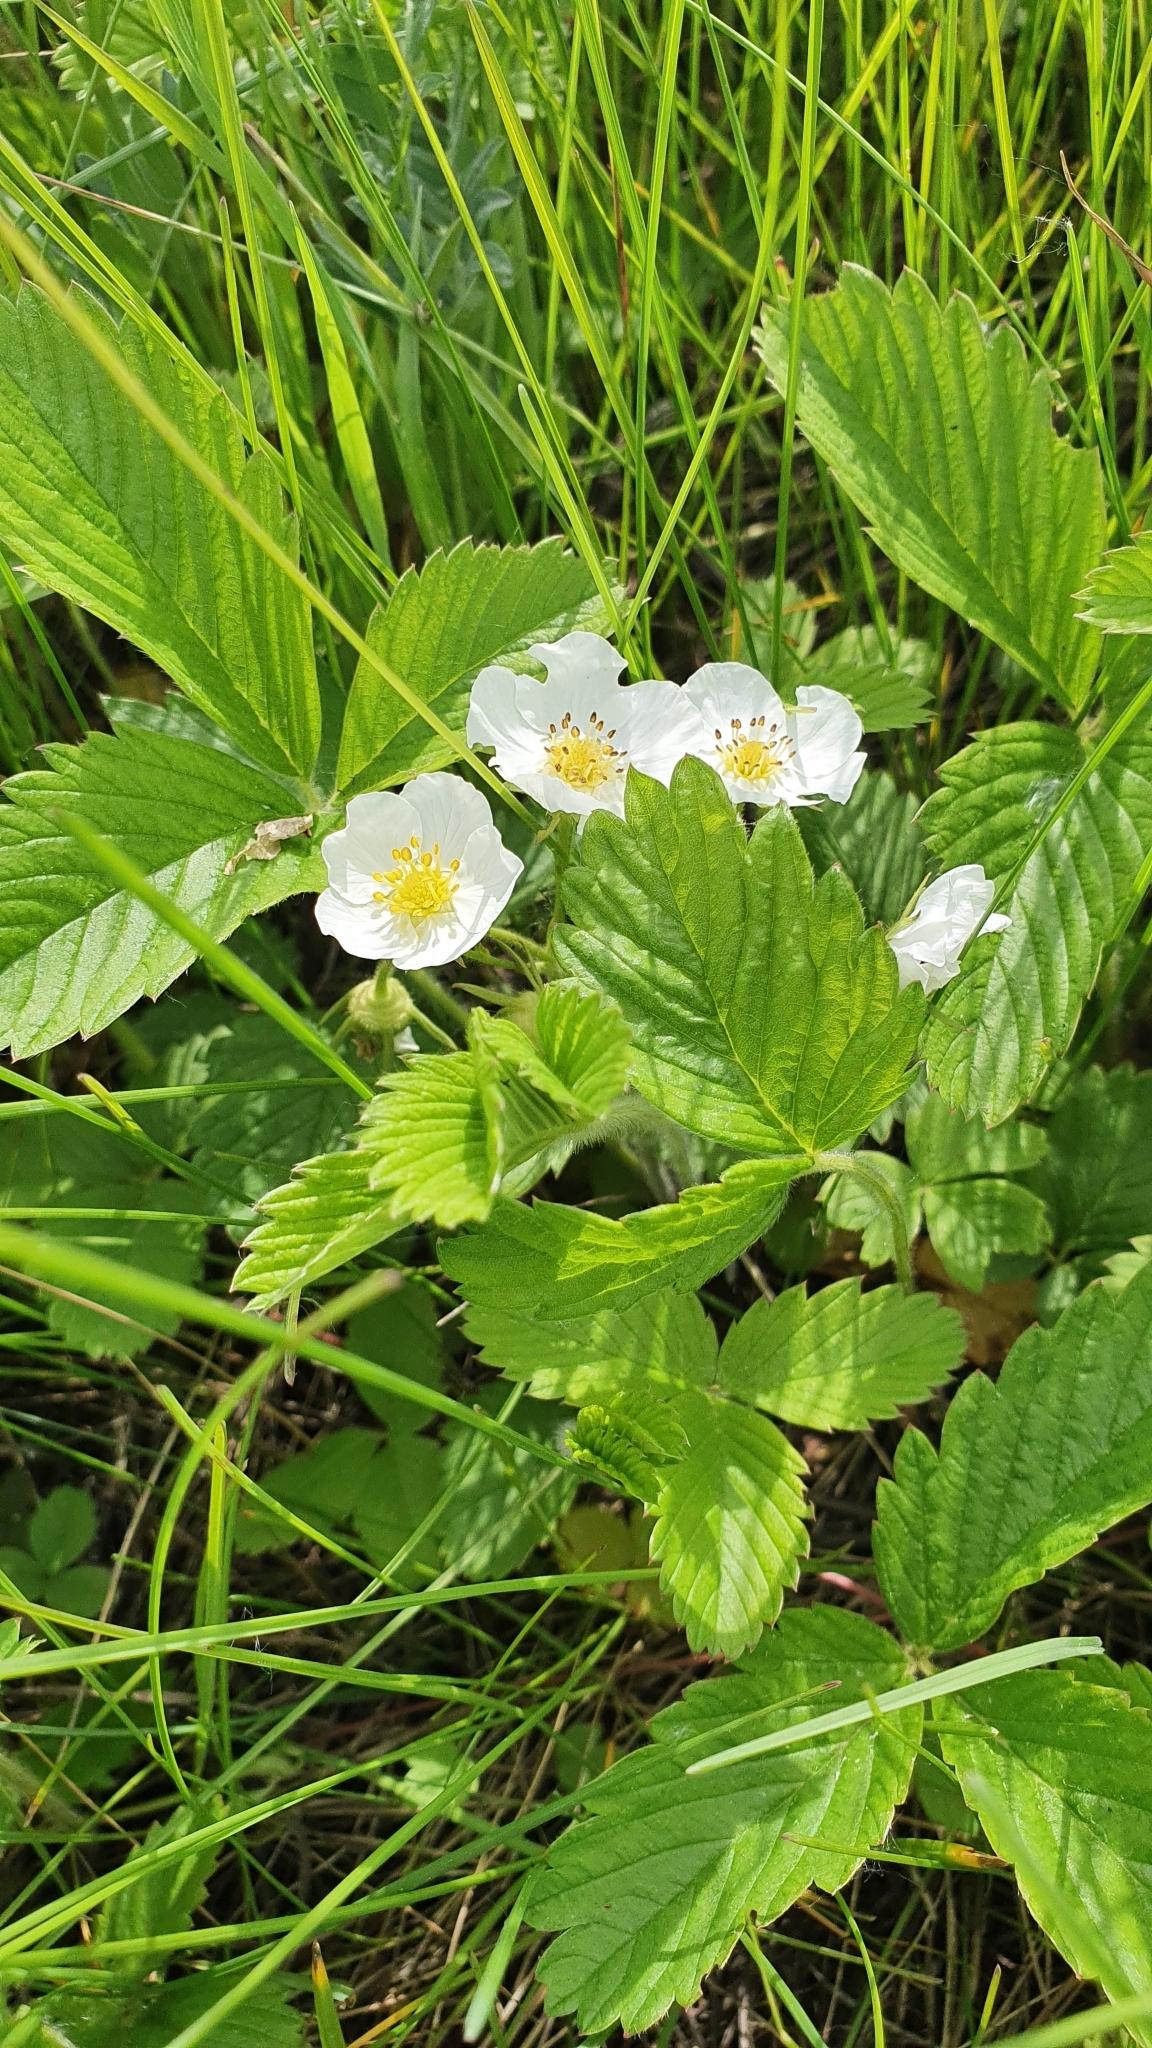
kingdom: Plantae
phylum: Tracheophyta
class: Magnoliopsida
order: Rosales
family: Rosaceae
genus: Fragaria
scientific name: Fragaria viridis
